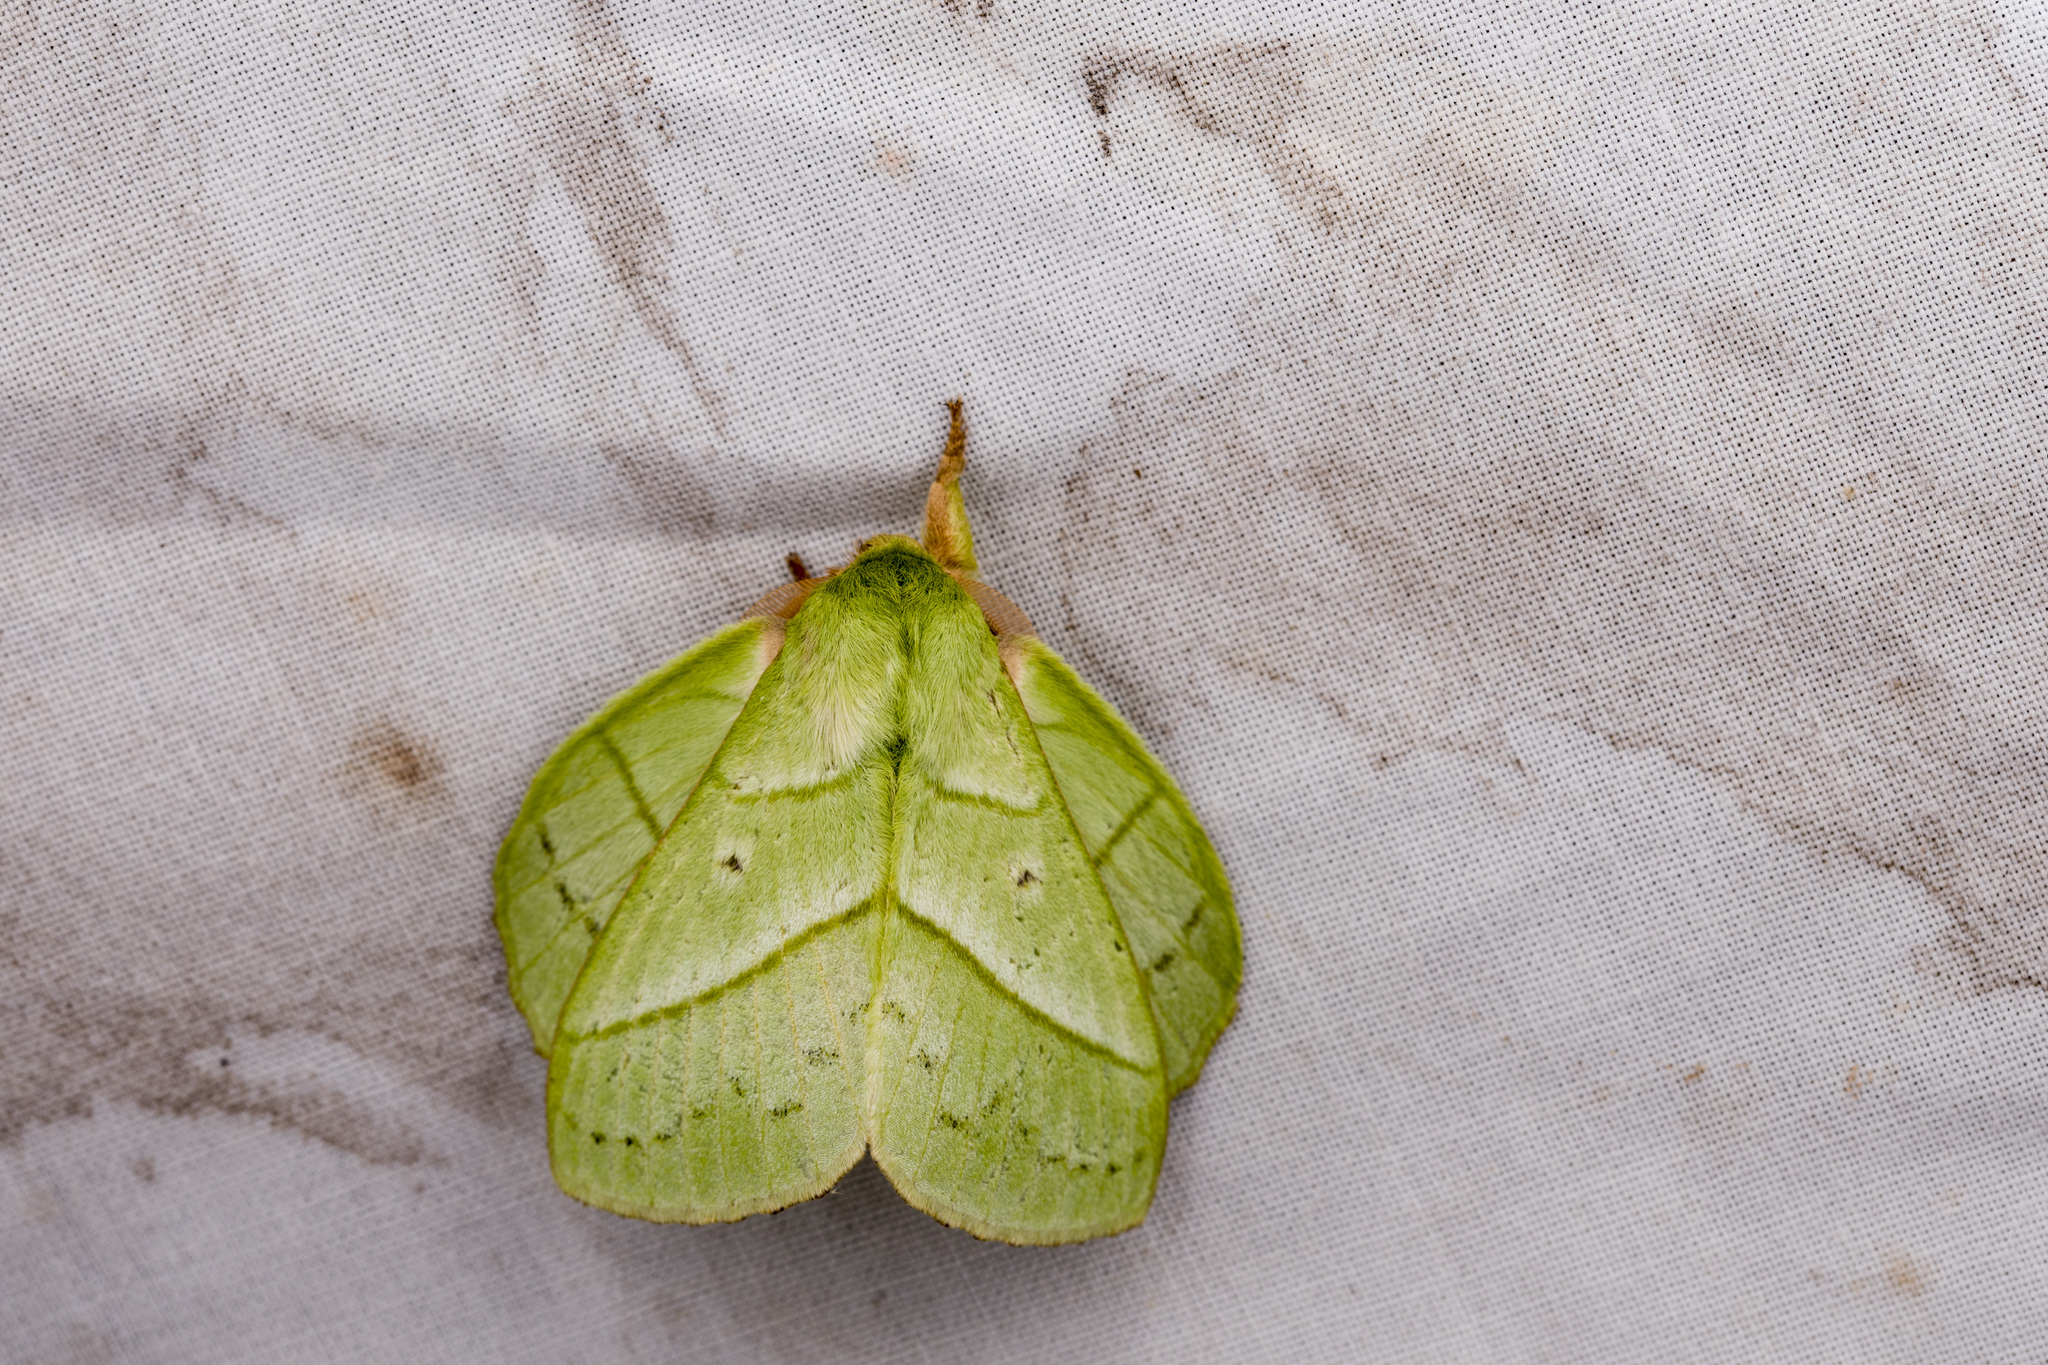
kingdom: Animalia
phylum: Arthropoda
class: Insecta
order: Lepidoptera
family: Lasiocampidae
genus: Trabala
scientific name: Trabala vishnou
